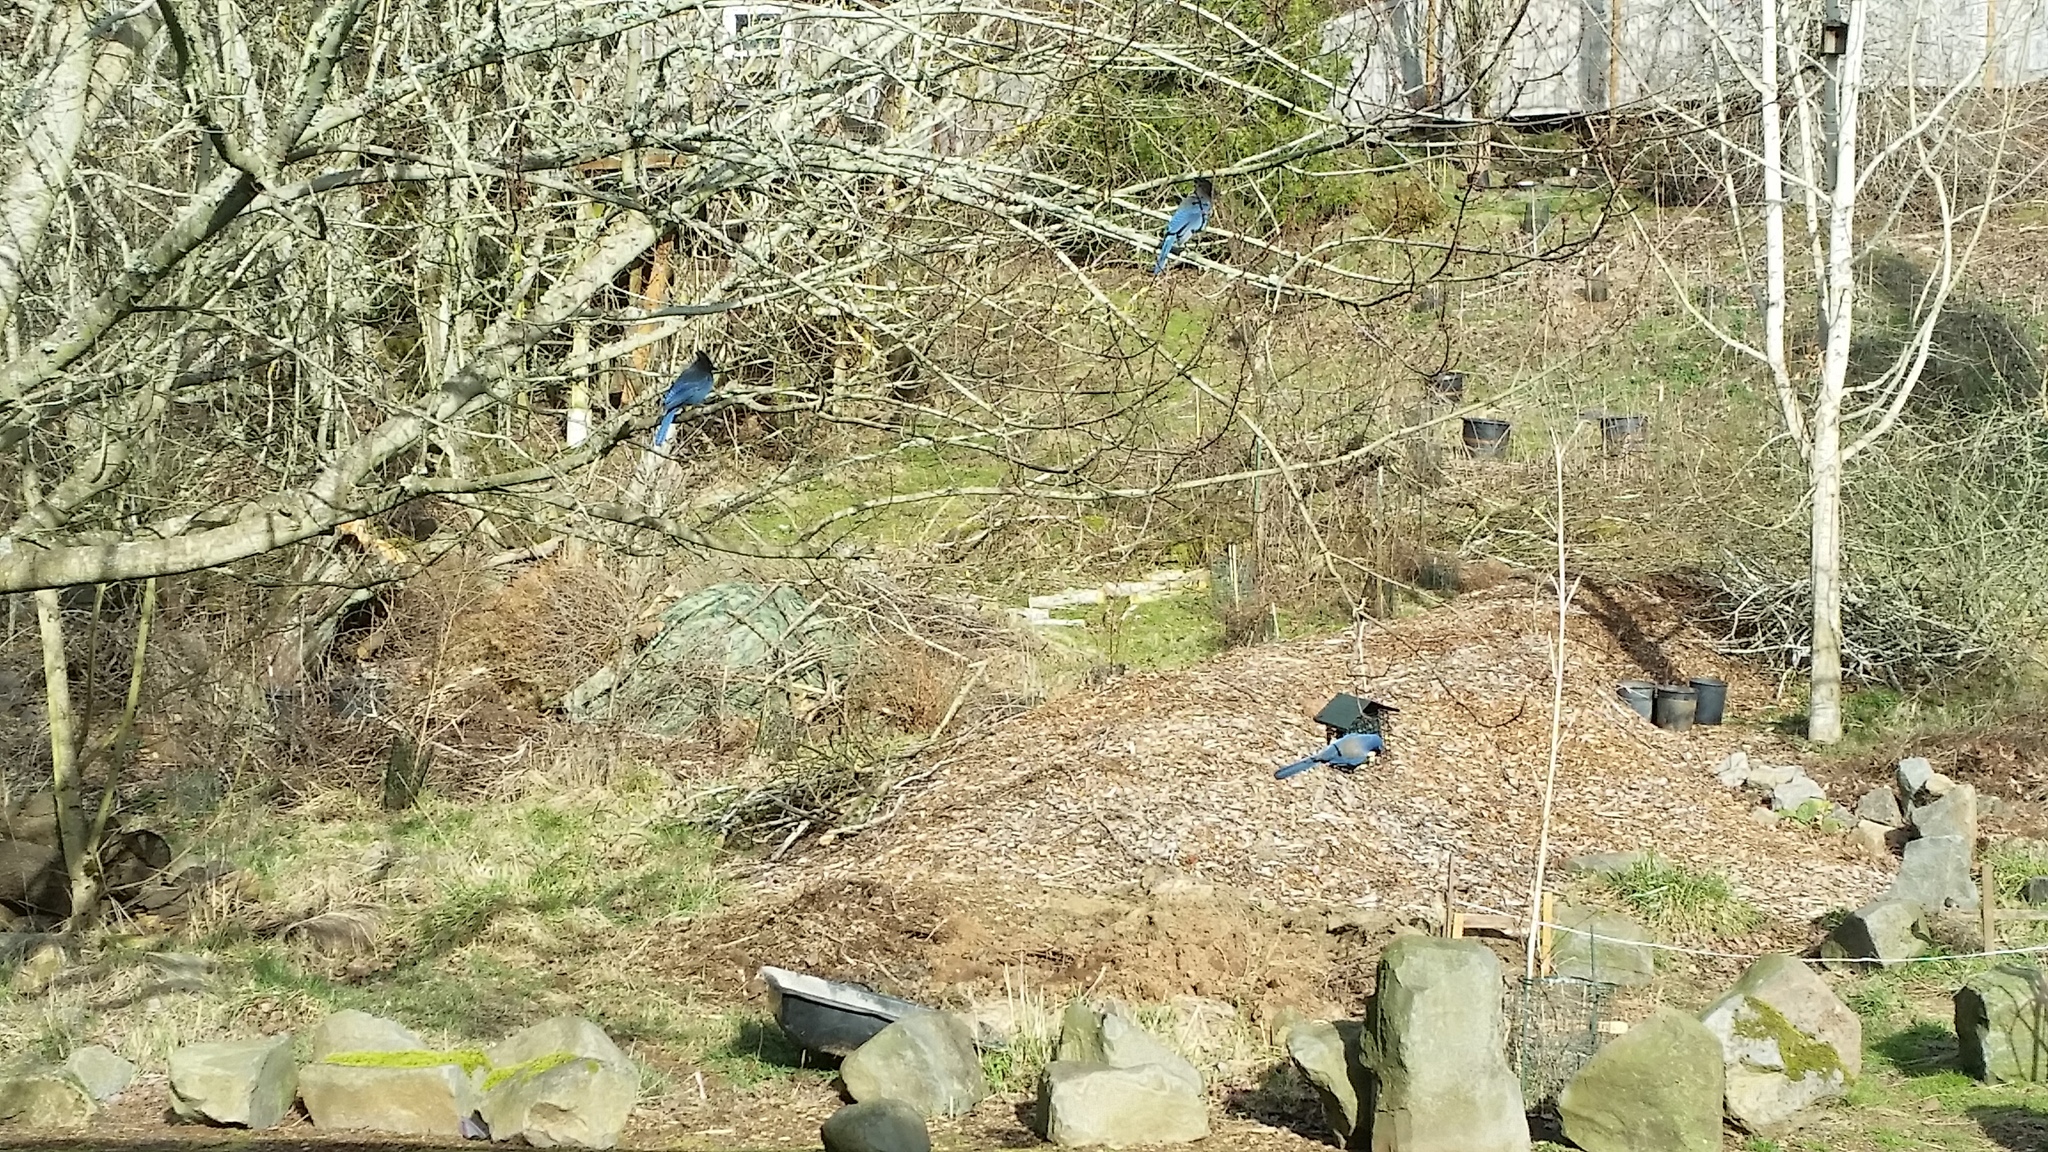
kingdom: Animalia
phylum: Chordata
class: Aves
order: Passeriformes
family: Corvidae
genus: Cyanocitta
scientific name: Cyanocitta stelleri
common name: Steller's jay
